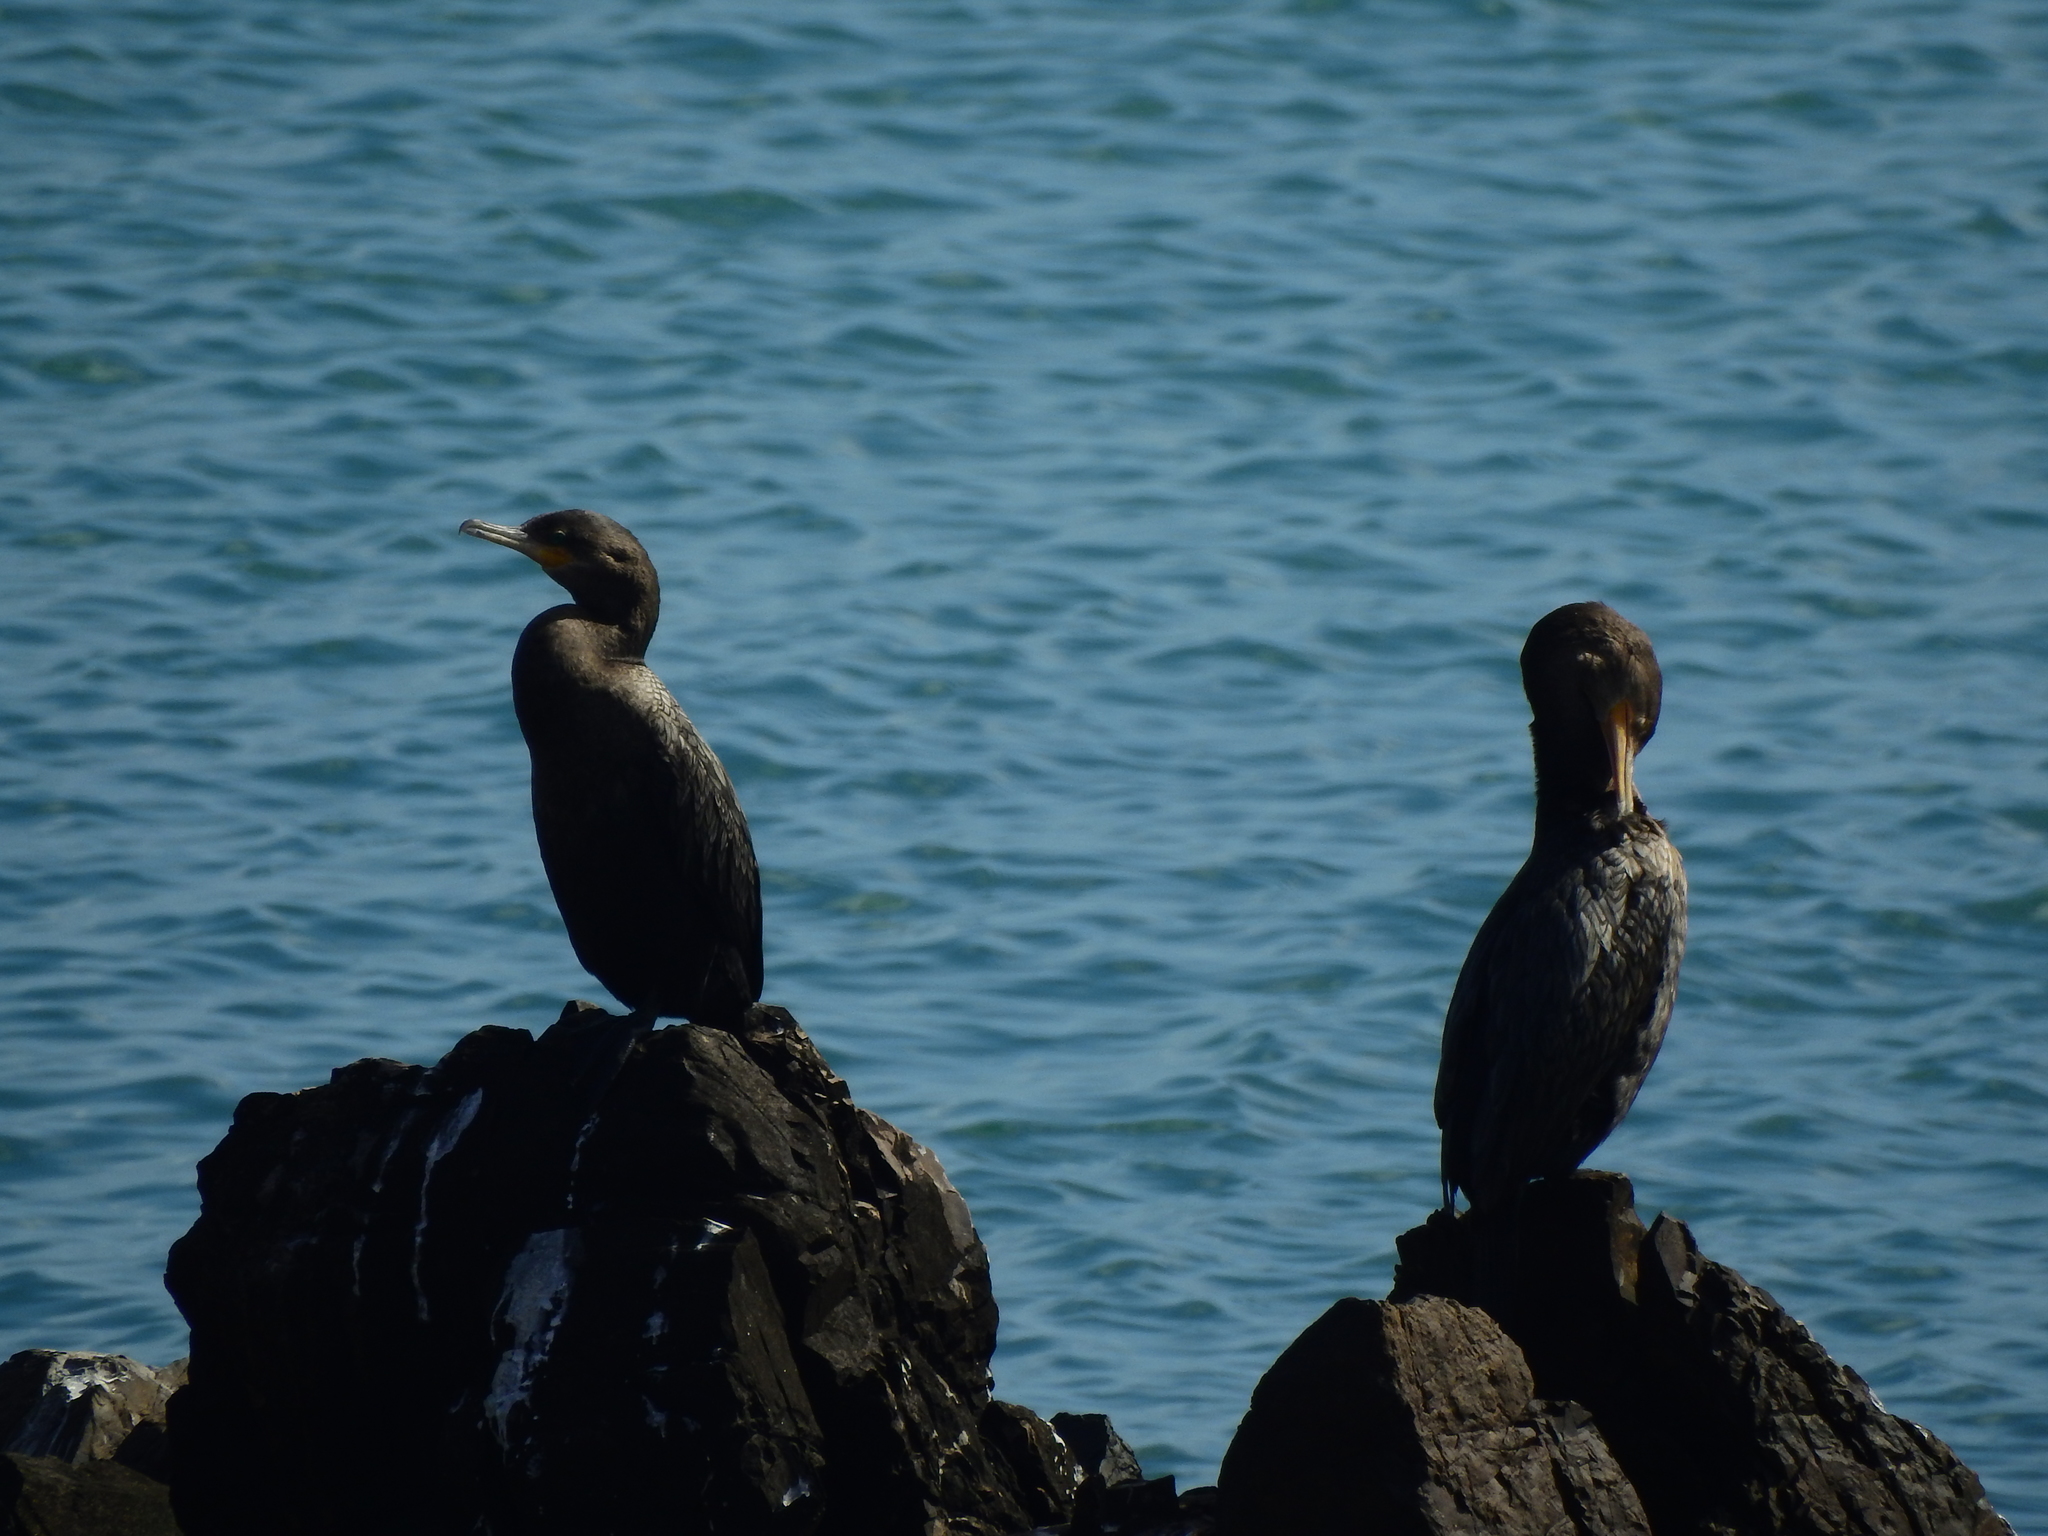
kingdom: Animalia
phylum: Chordata
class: Aves
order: Suliformes
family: Phalacrocoracidae
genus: Phalacrocorax
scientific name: Phalacrocorax brasilianus
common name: Neotropic cormorant
